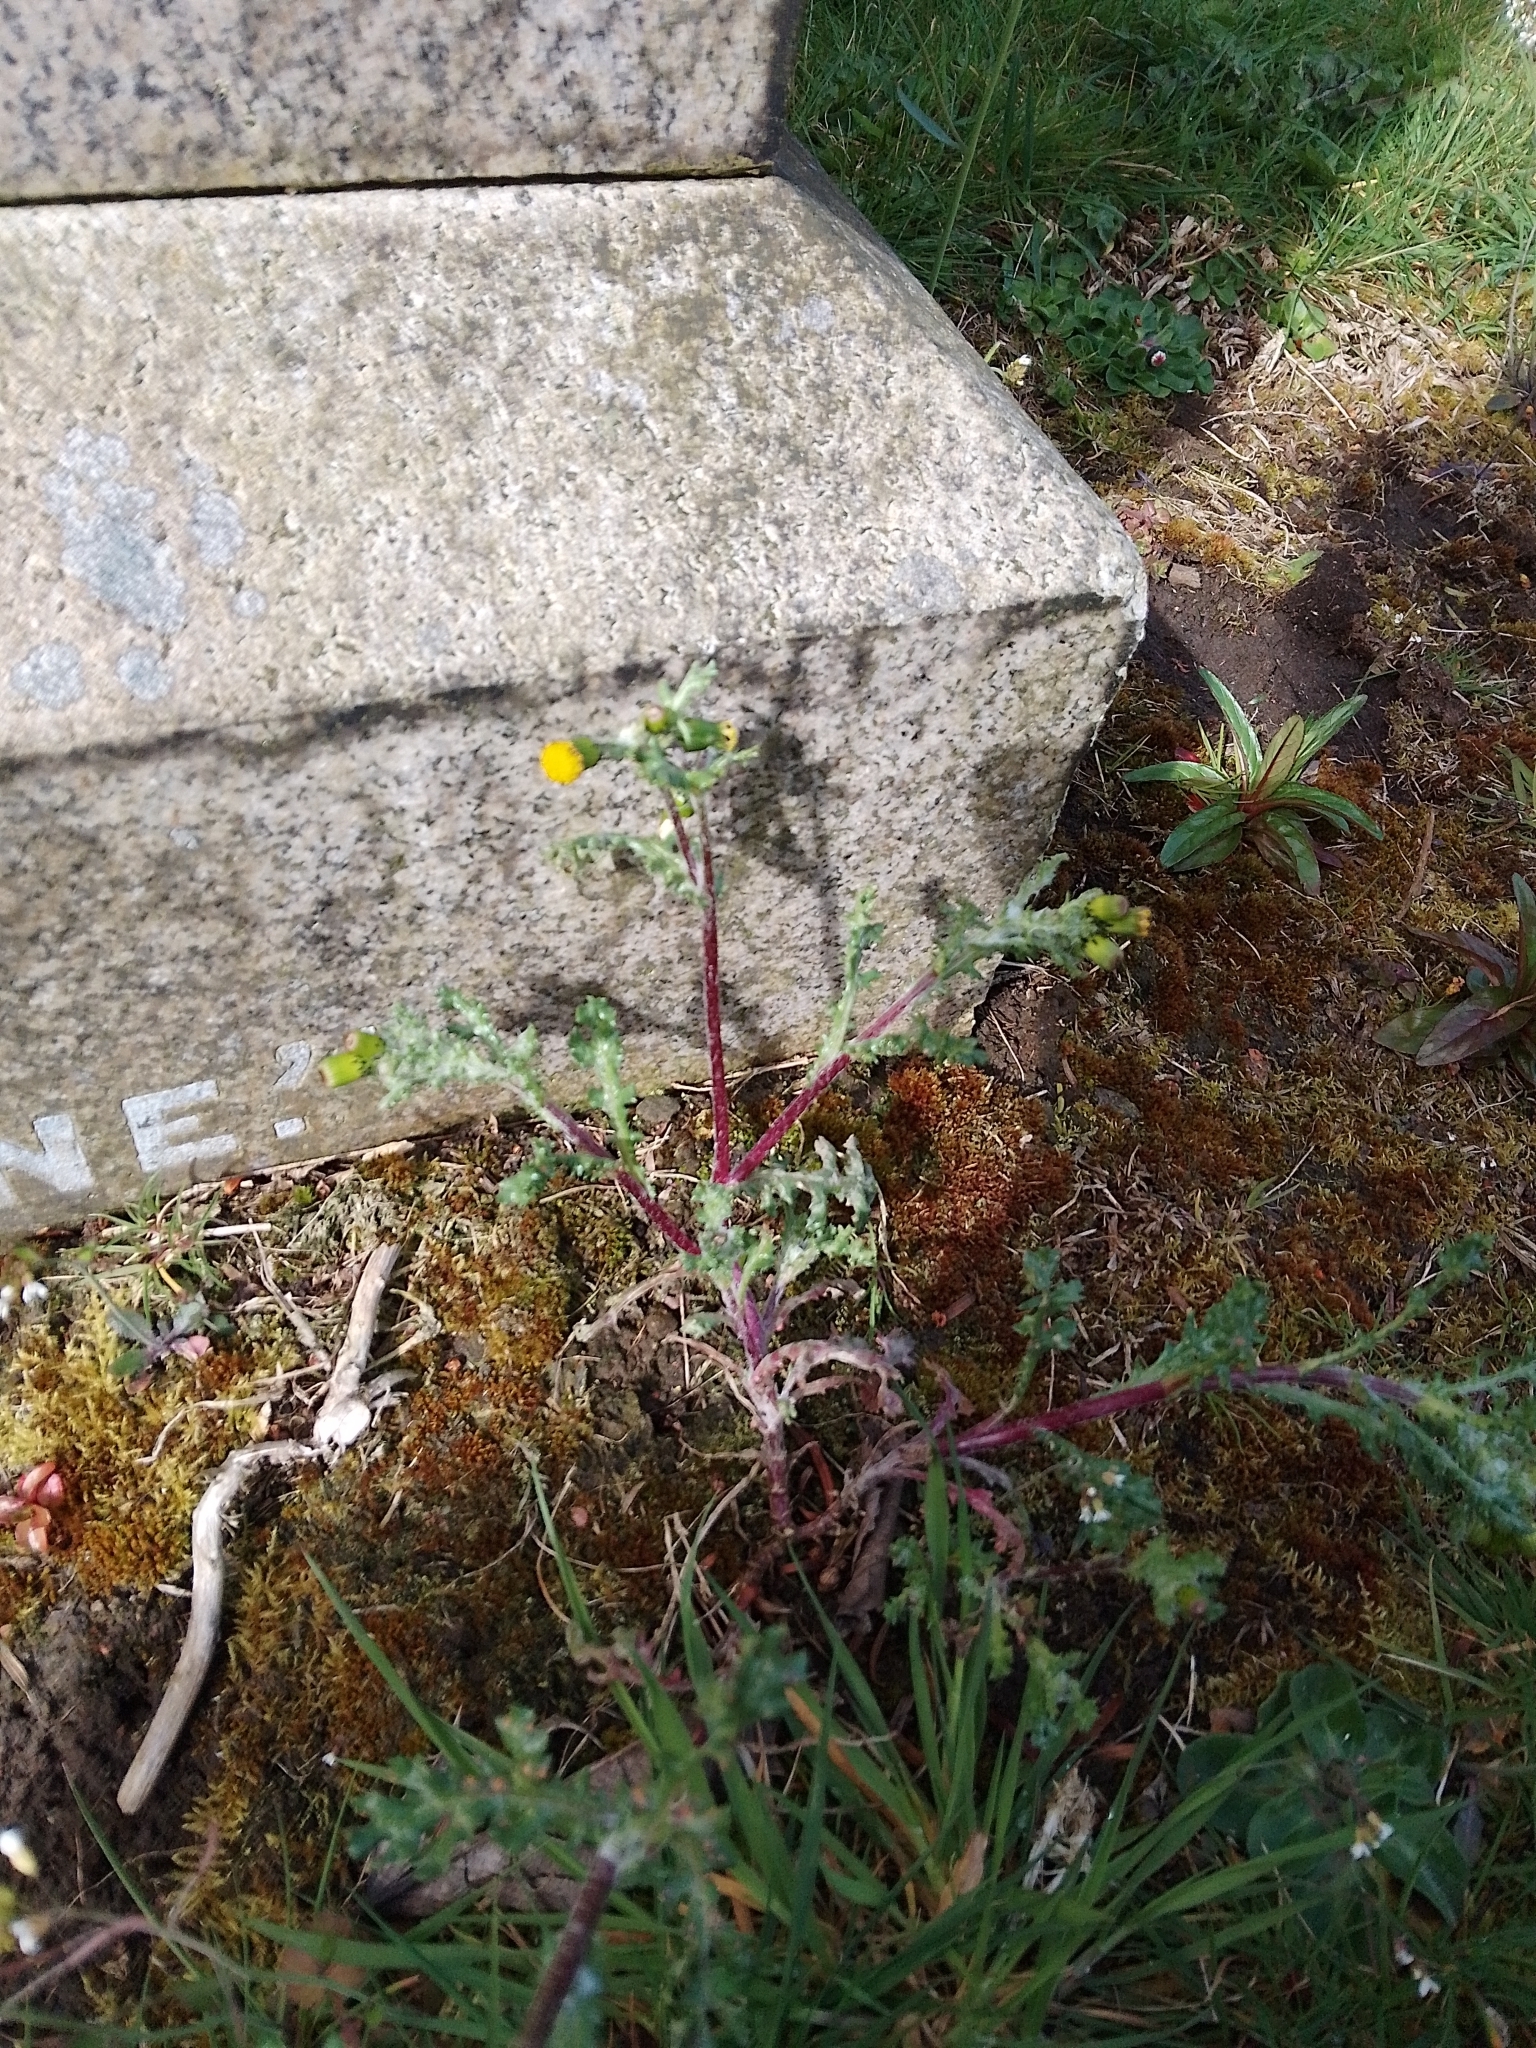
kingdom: Plantae
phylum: Tracheophyta
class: Magnoliopsida
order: Asterales
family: Asteraceae
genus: Senecio
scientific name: Senecio vulgaris
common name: Old-man-in-the-spring
